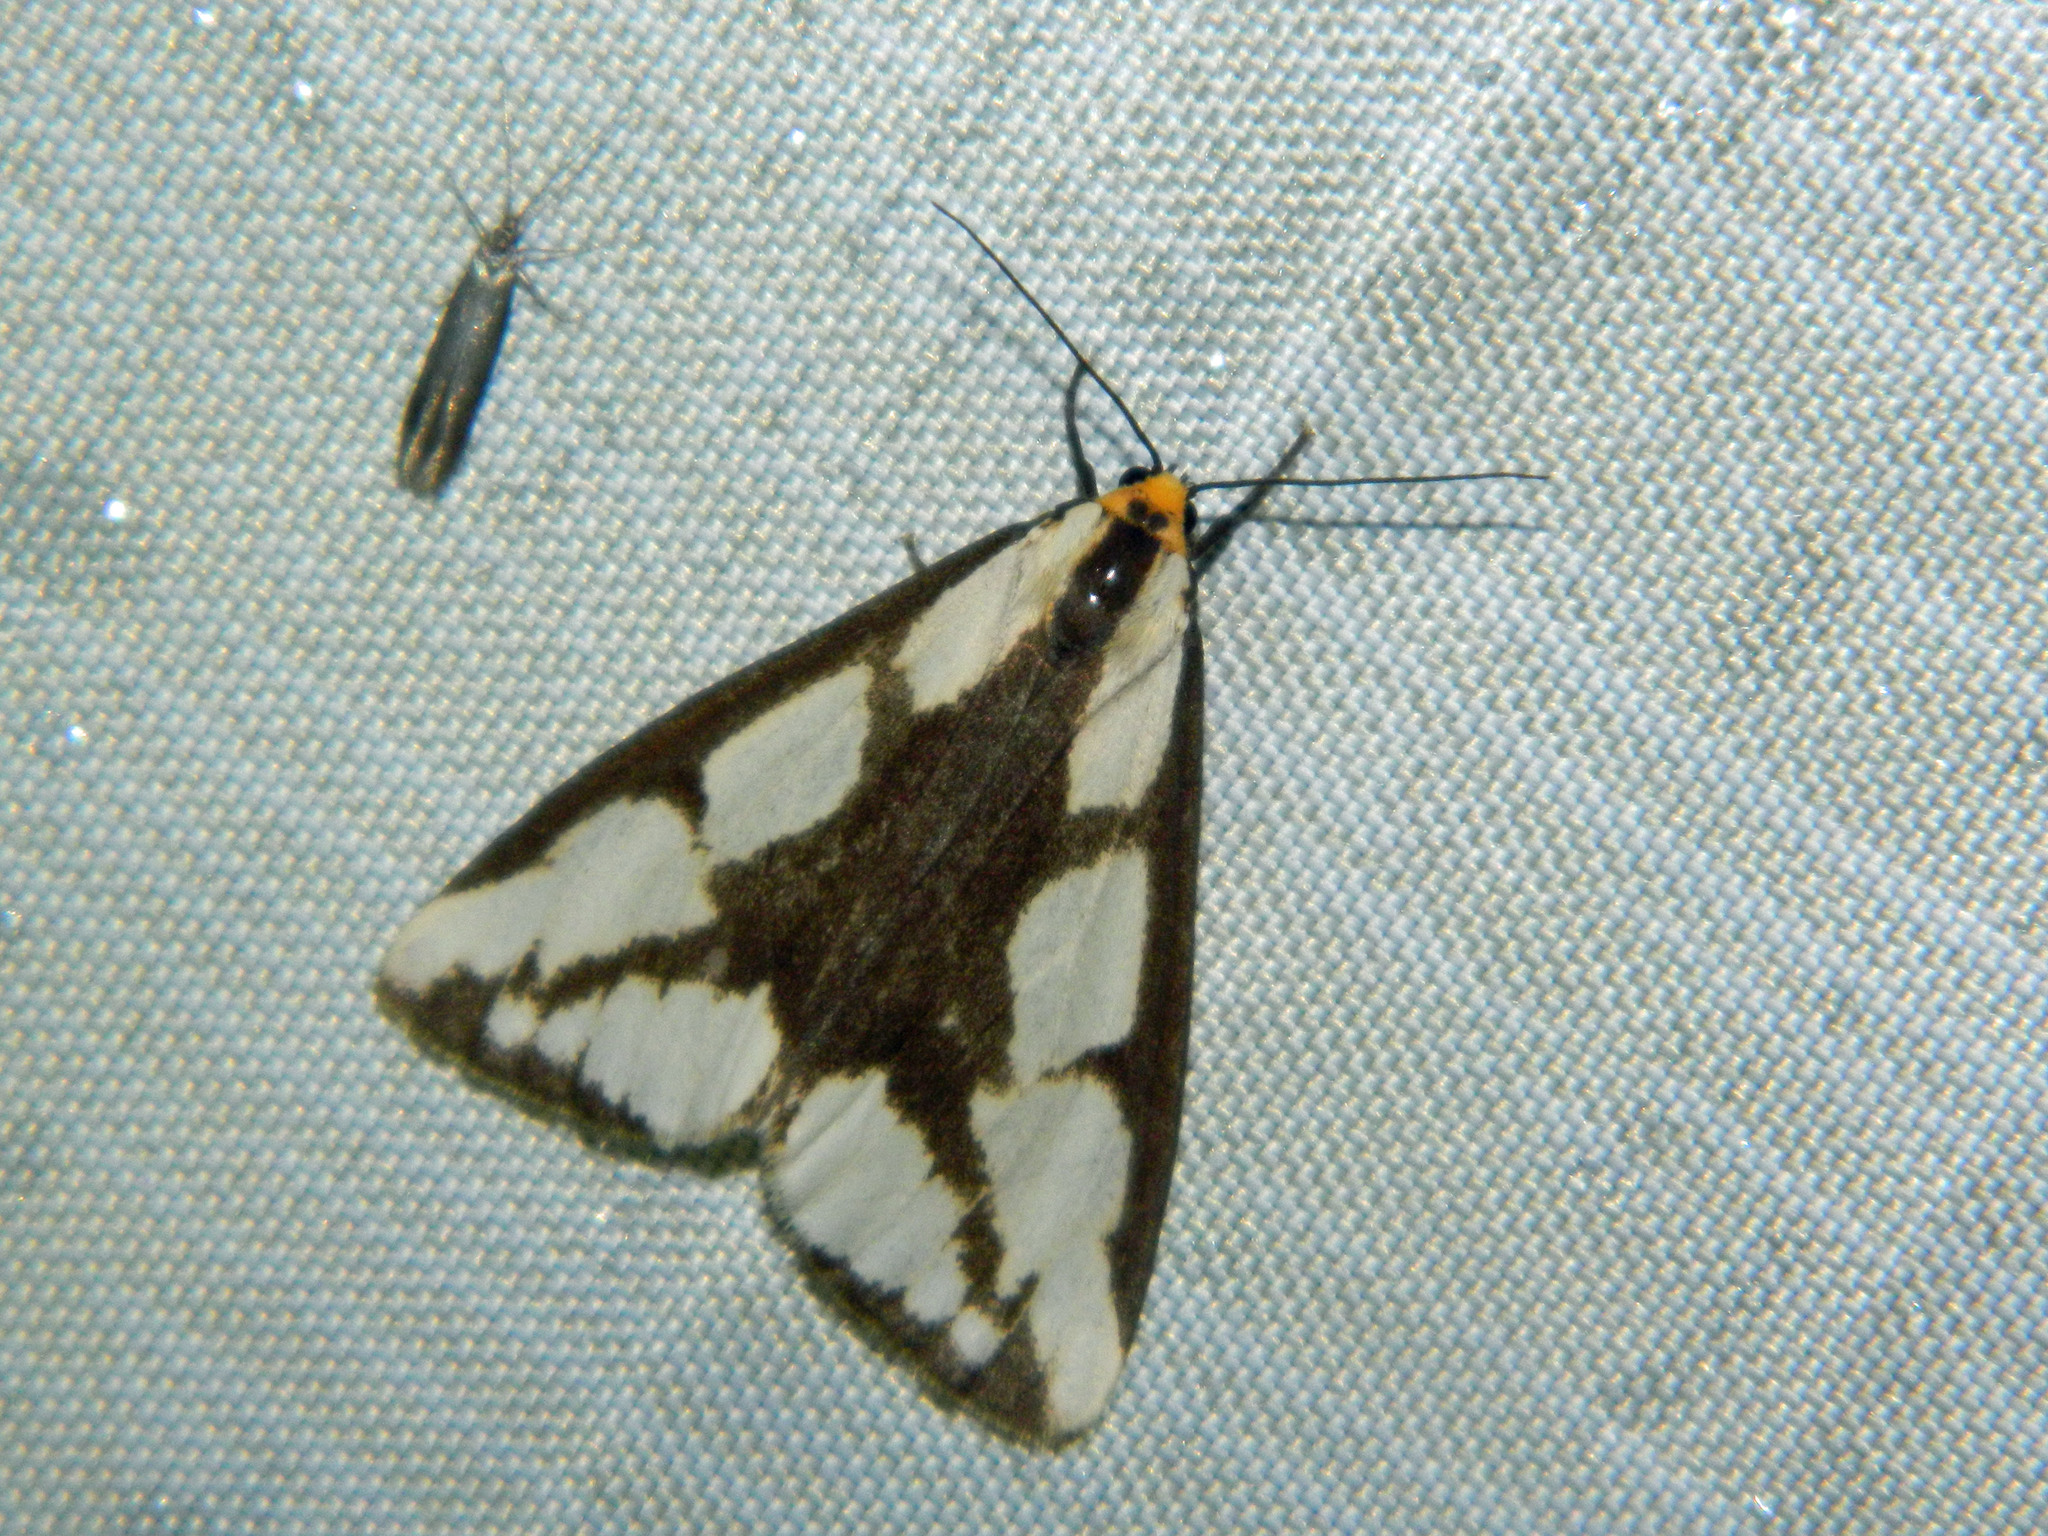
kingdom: Animalia
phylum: Arthropoda
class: Insecta
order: Lepidoptera
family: Erebidae
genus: Haploa
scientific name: Haploa lecontei
